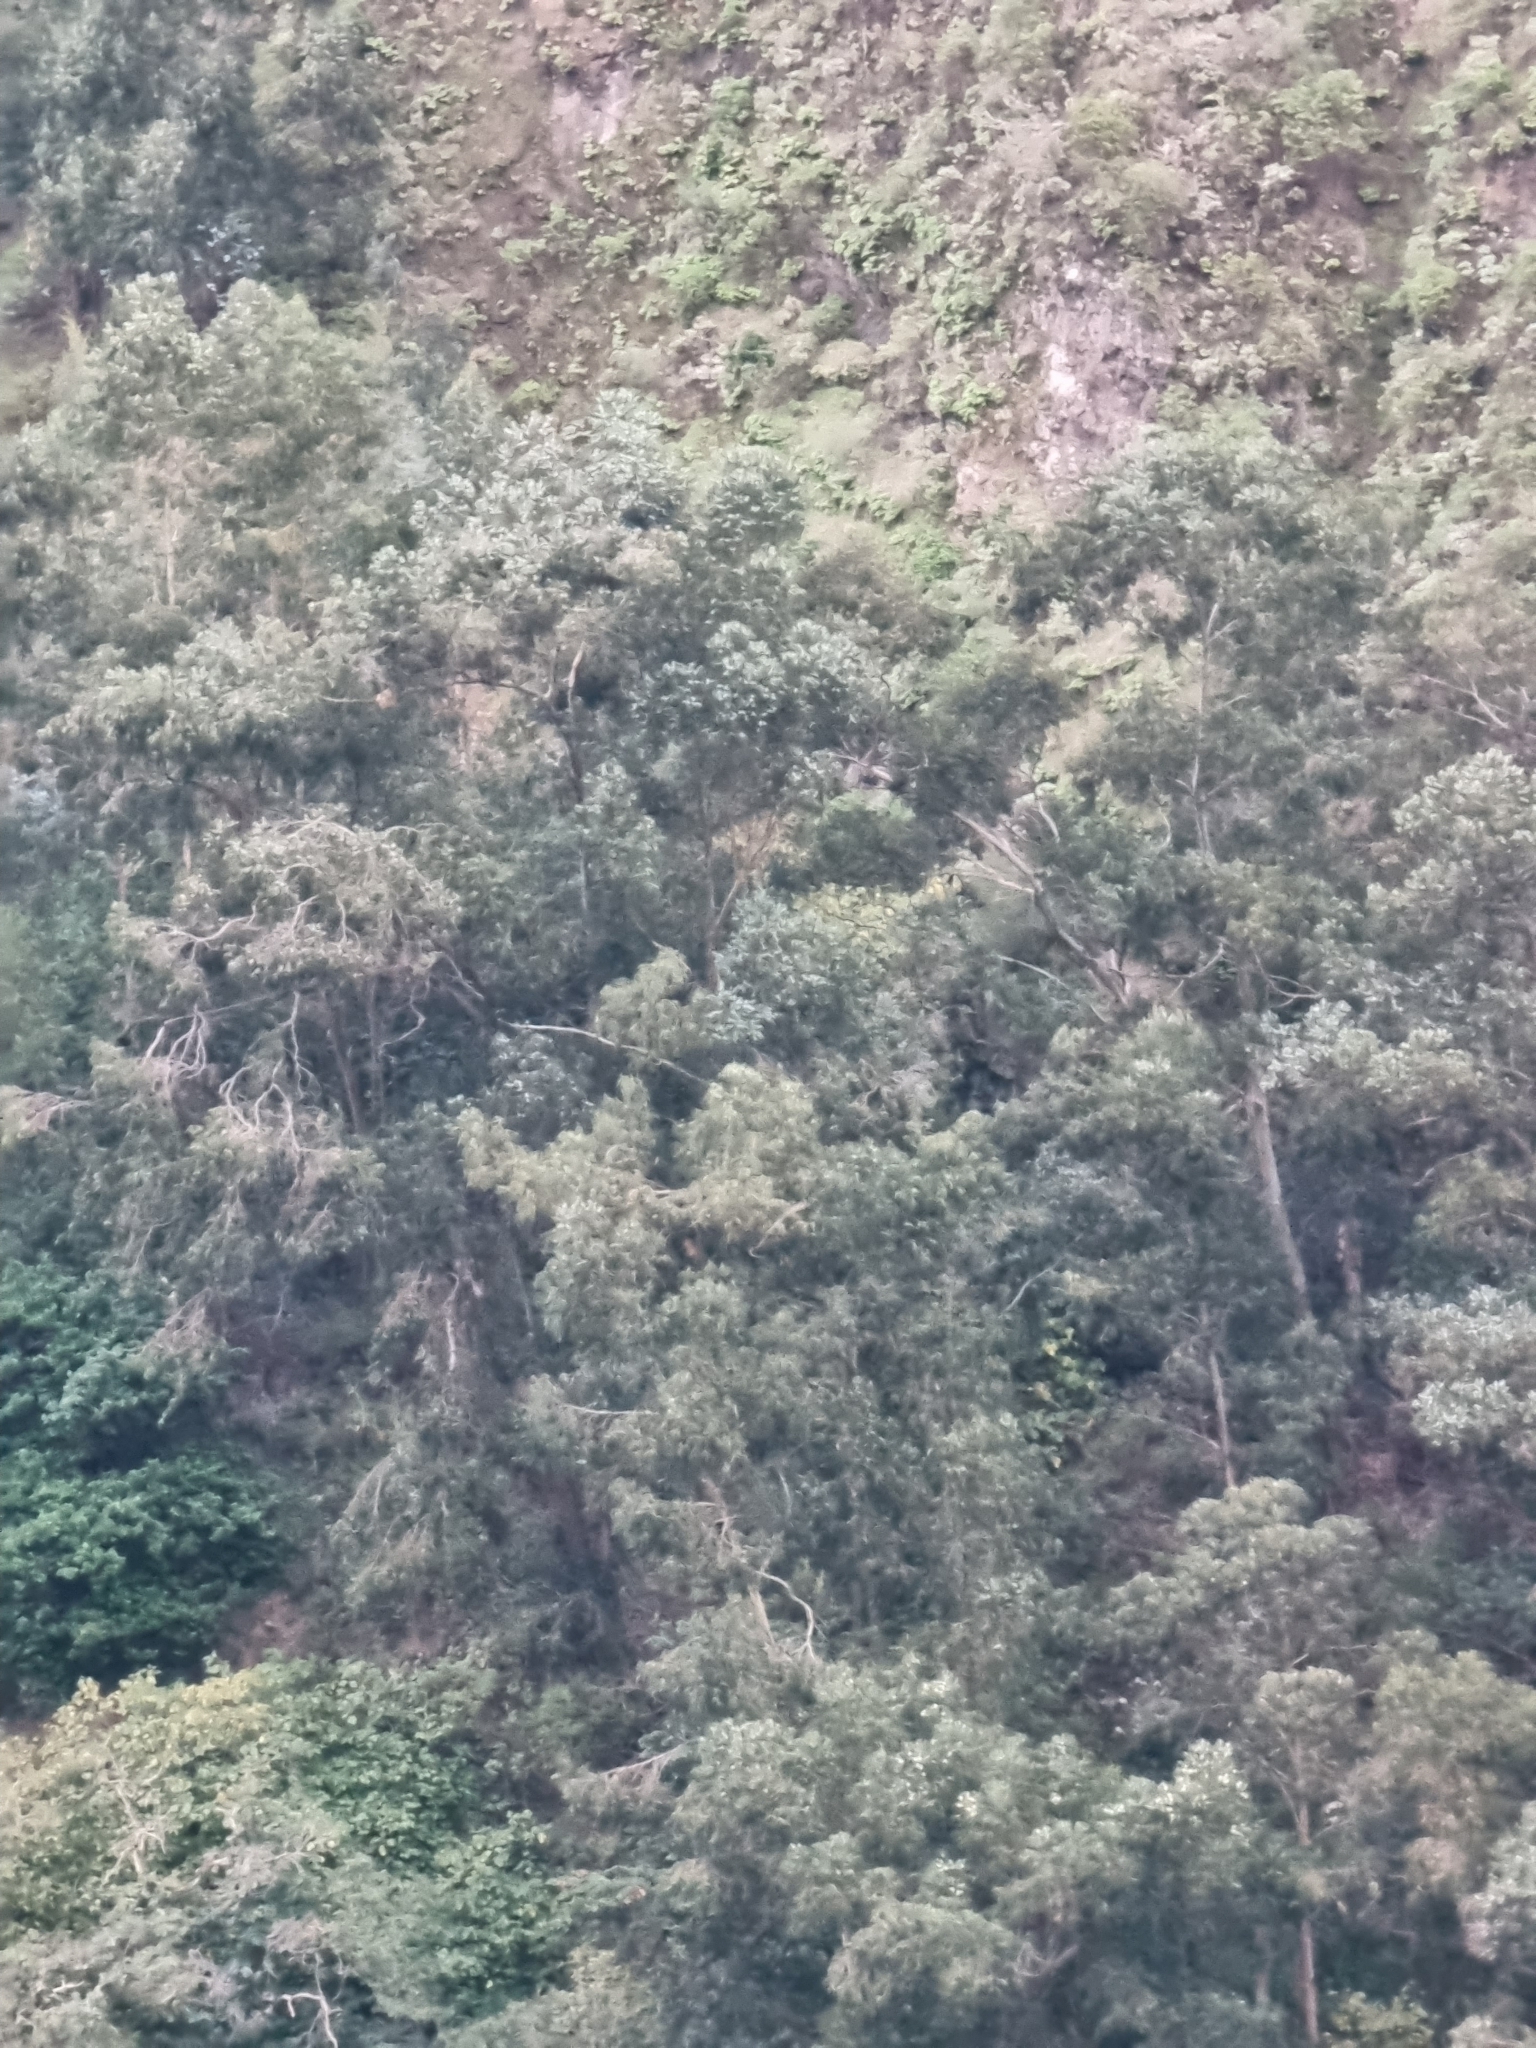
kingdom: Plantae
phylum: Tracheophyta
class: Magnoliopsida
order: Myrtales
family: Myrtaceae
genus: Eucalyptus
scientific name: Eucalyptus globulus
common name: Southern blue-gum
